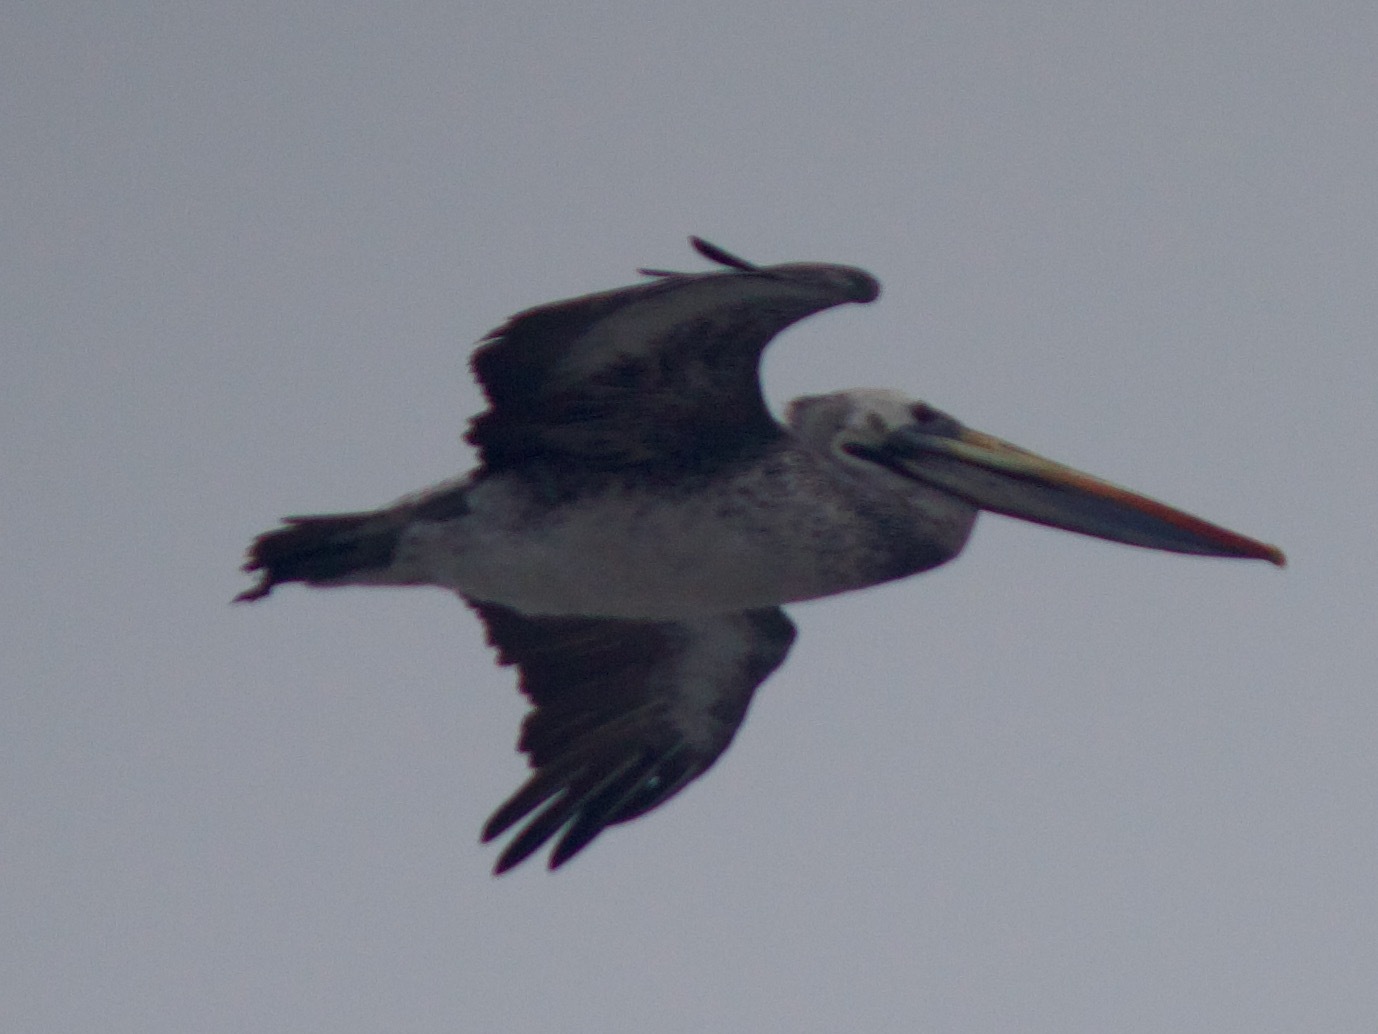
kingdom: Animalia
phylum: Chordata
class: Aves
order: Pelecaniformes
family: Pelecanidae
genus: Pelecanus
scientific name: Pelecanus thagus
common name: Peruvian pelican
